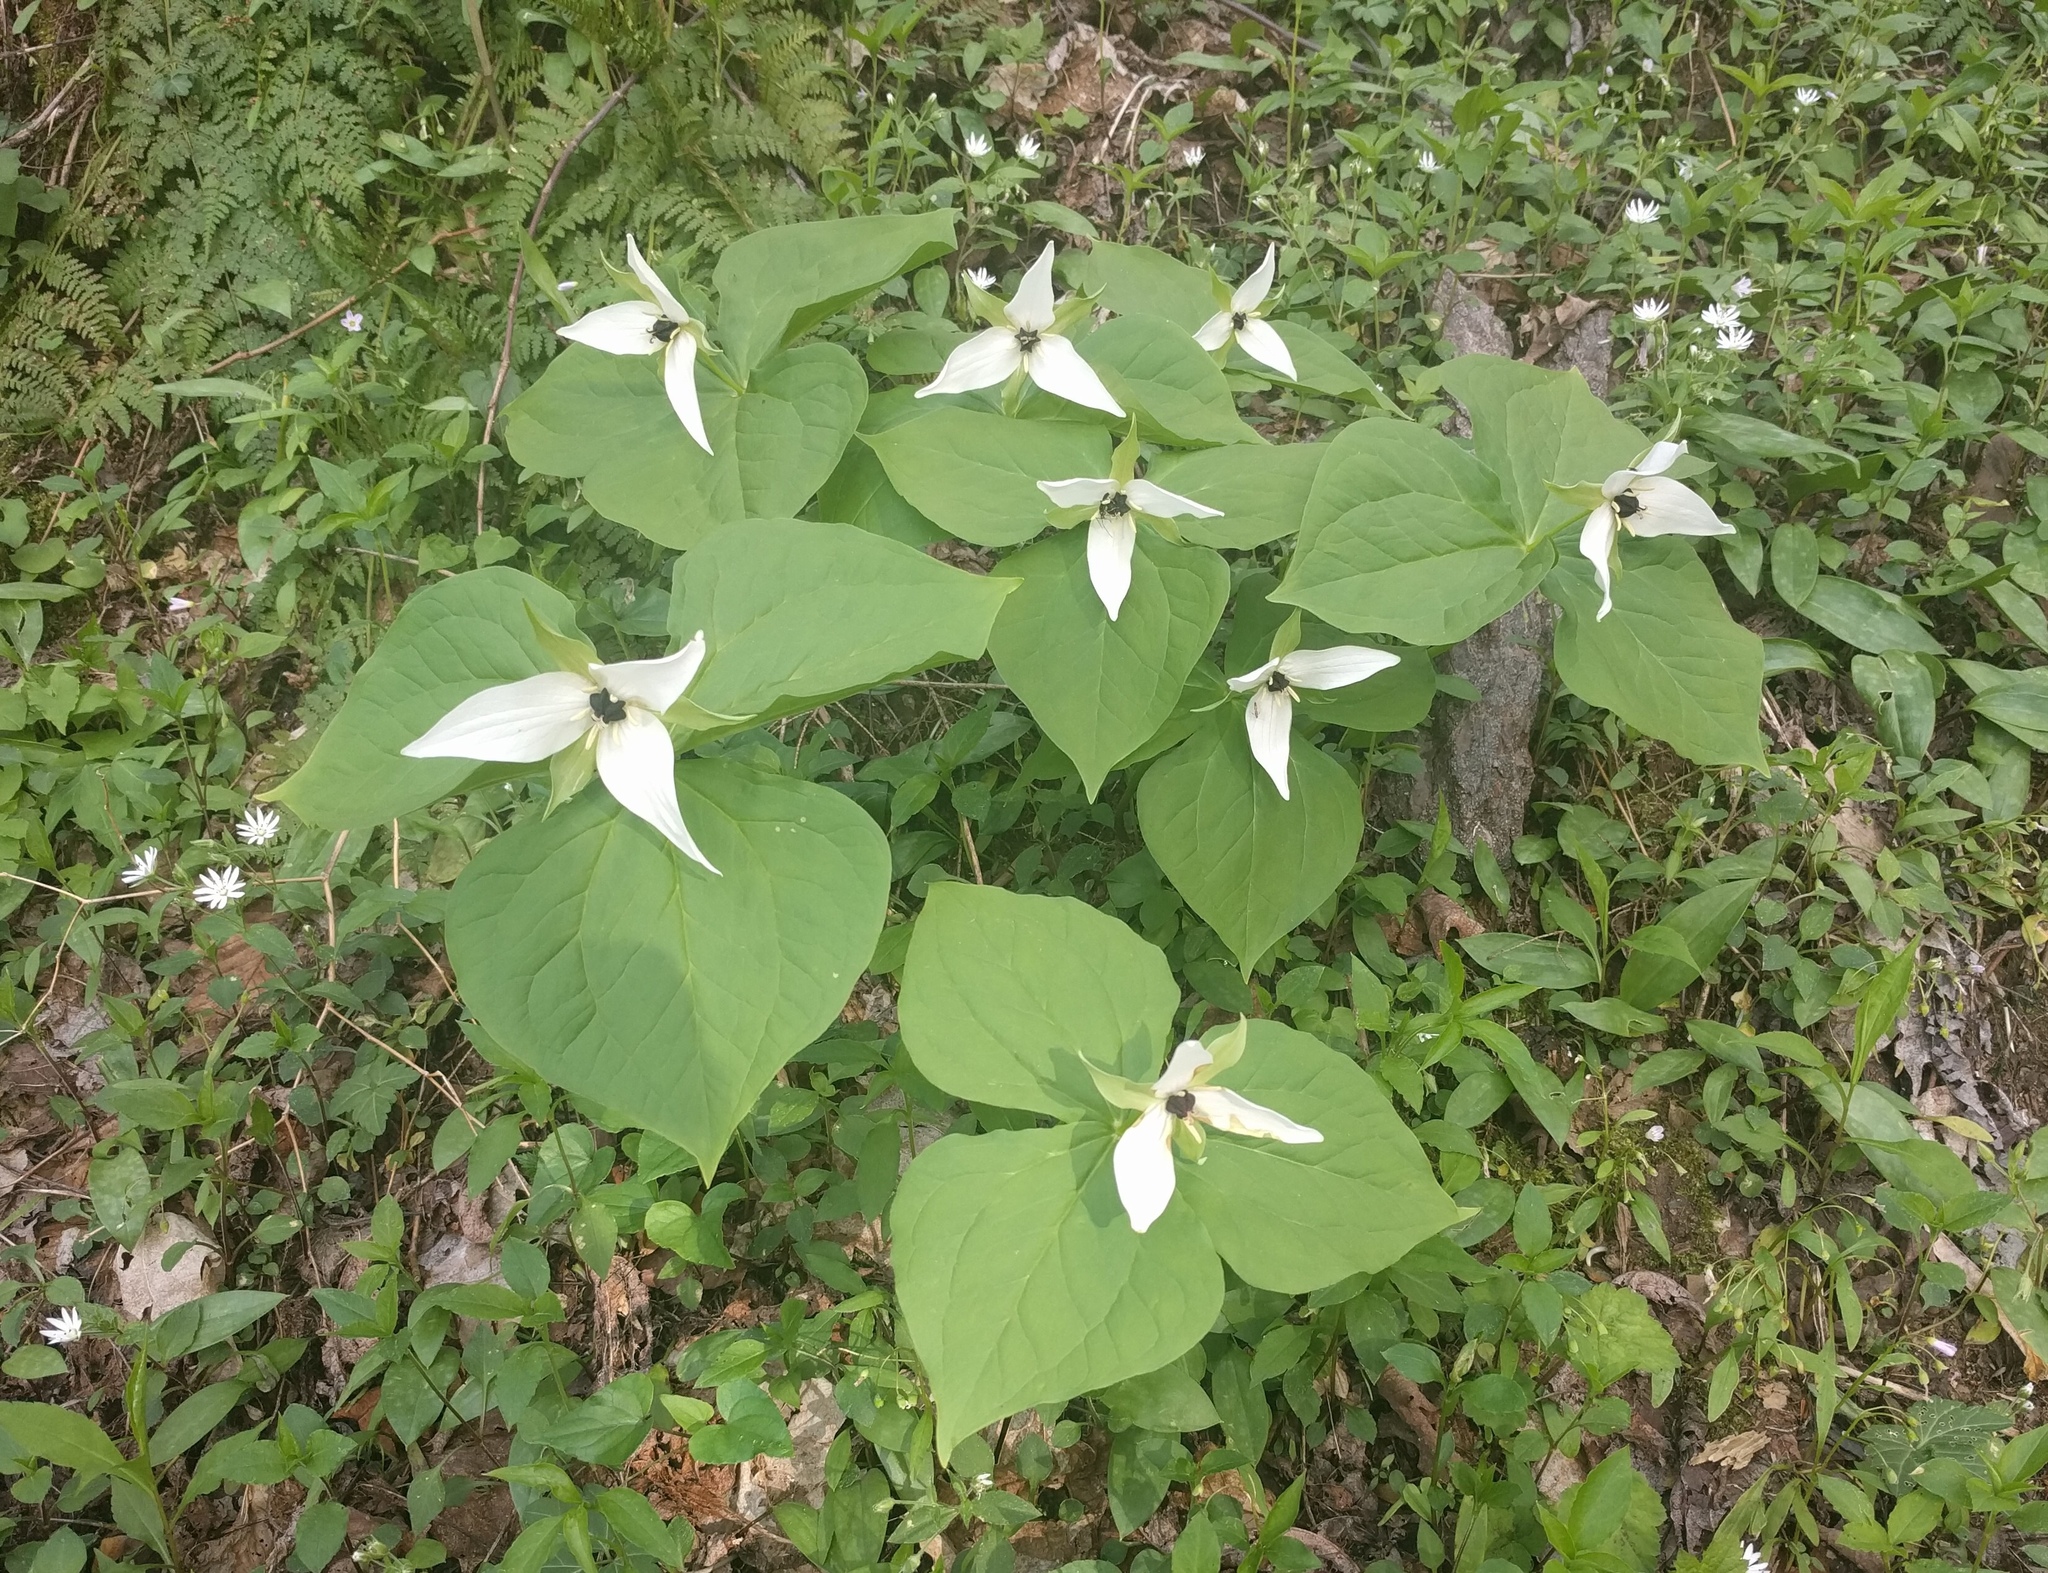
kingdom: Plantae
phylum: Tracheophyta
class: Liliopsida
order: Liliales
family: Melanthiaceae
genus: Trillium
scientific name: Trillium erectum
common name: Purple trillium
